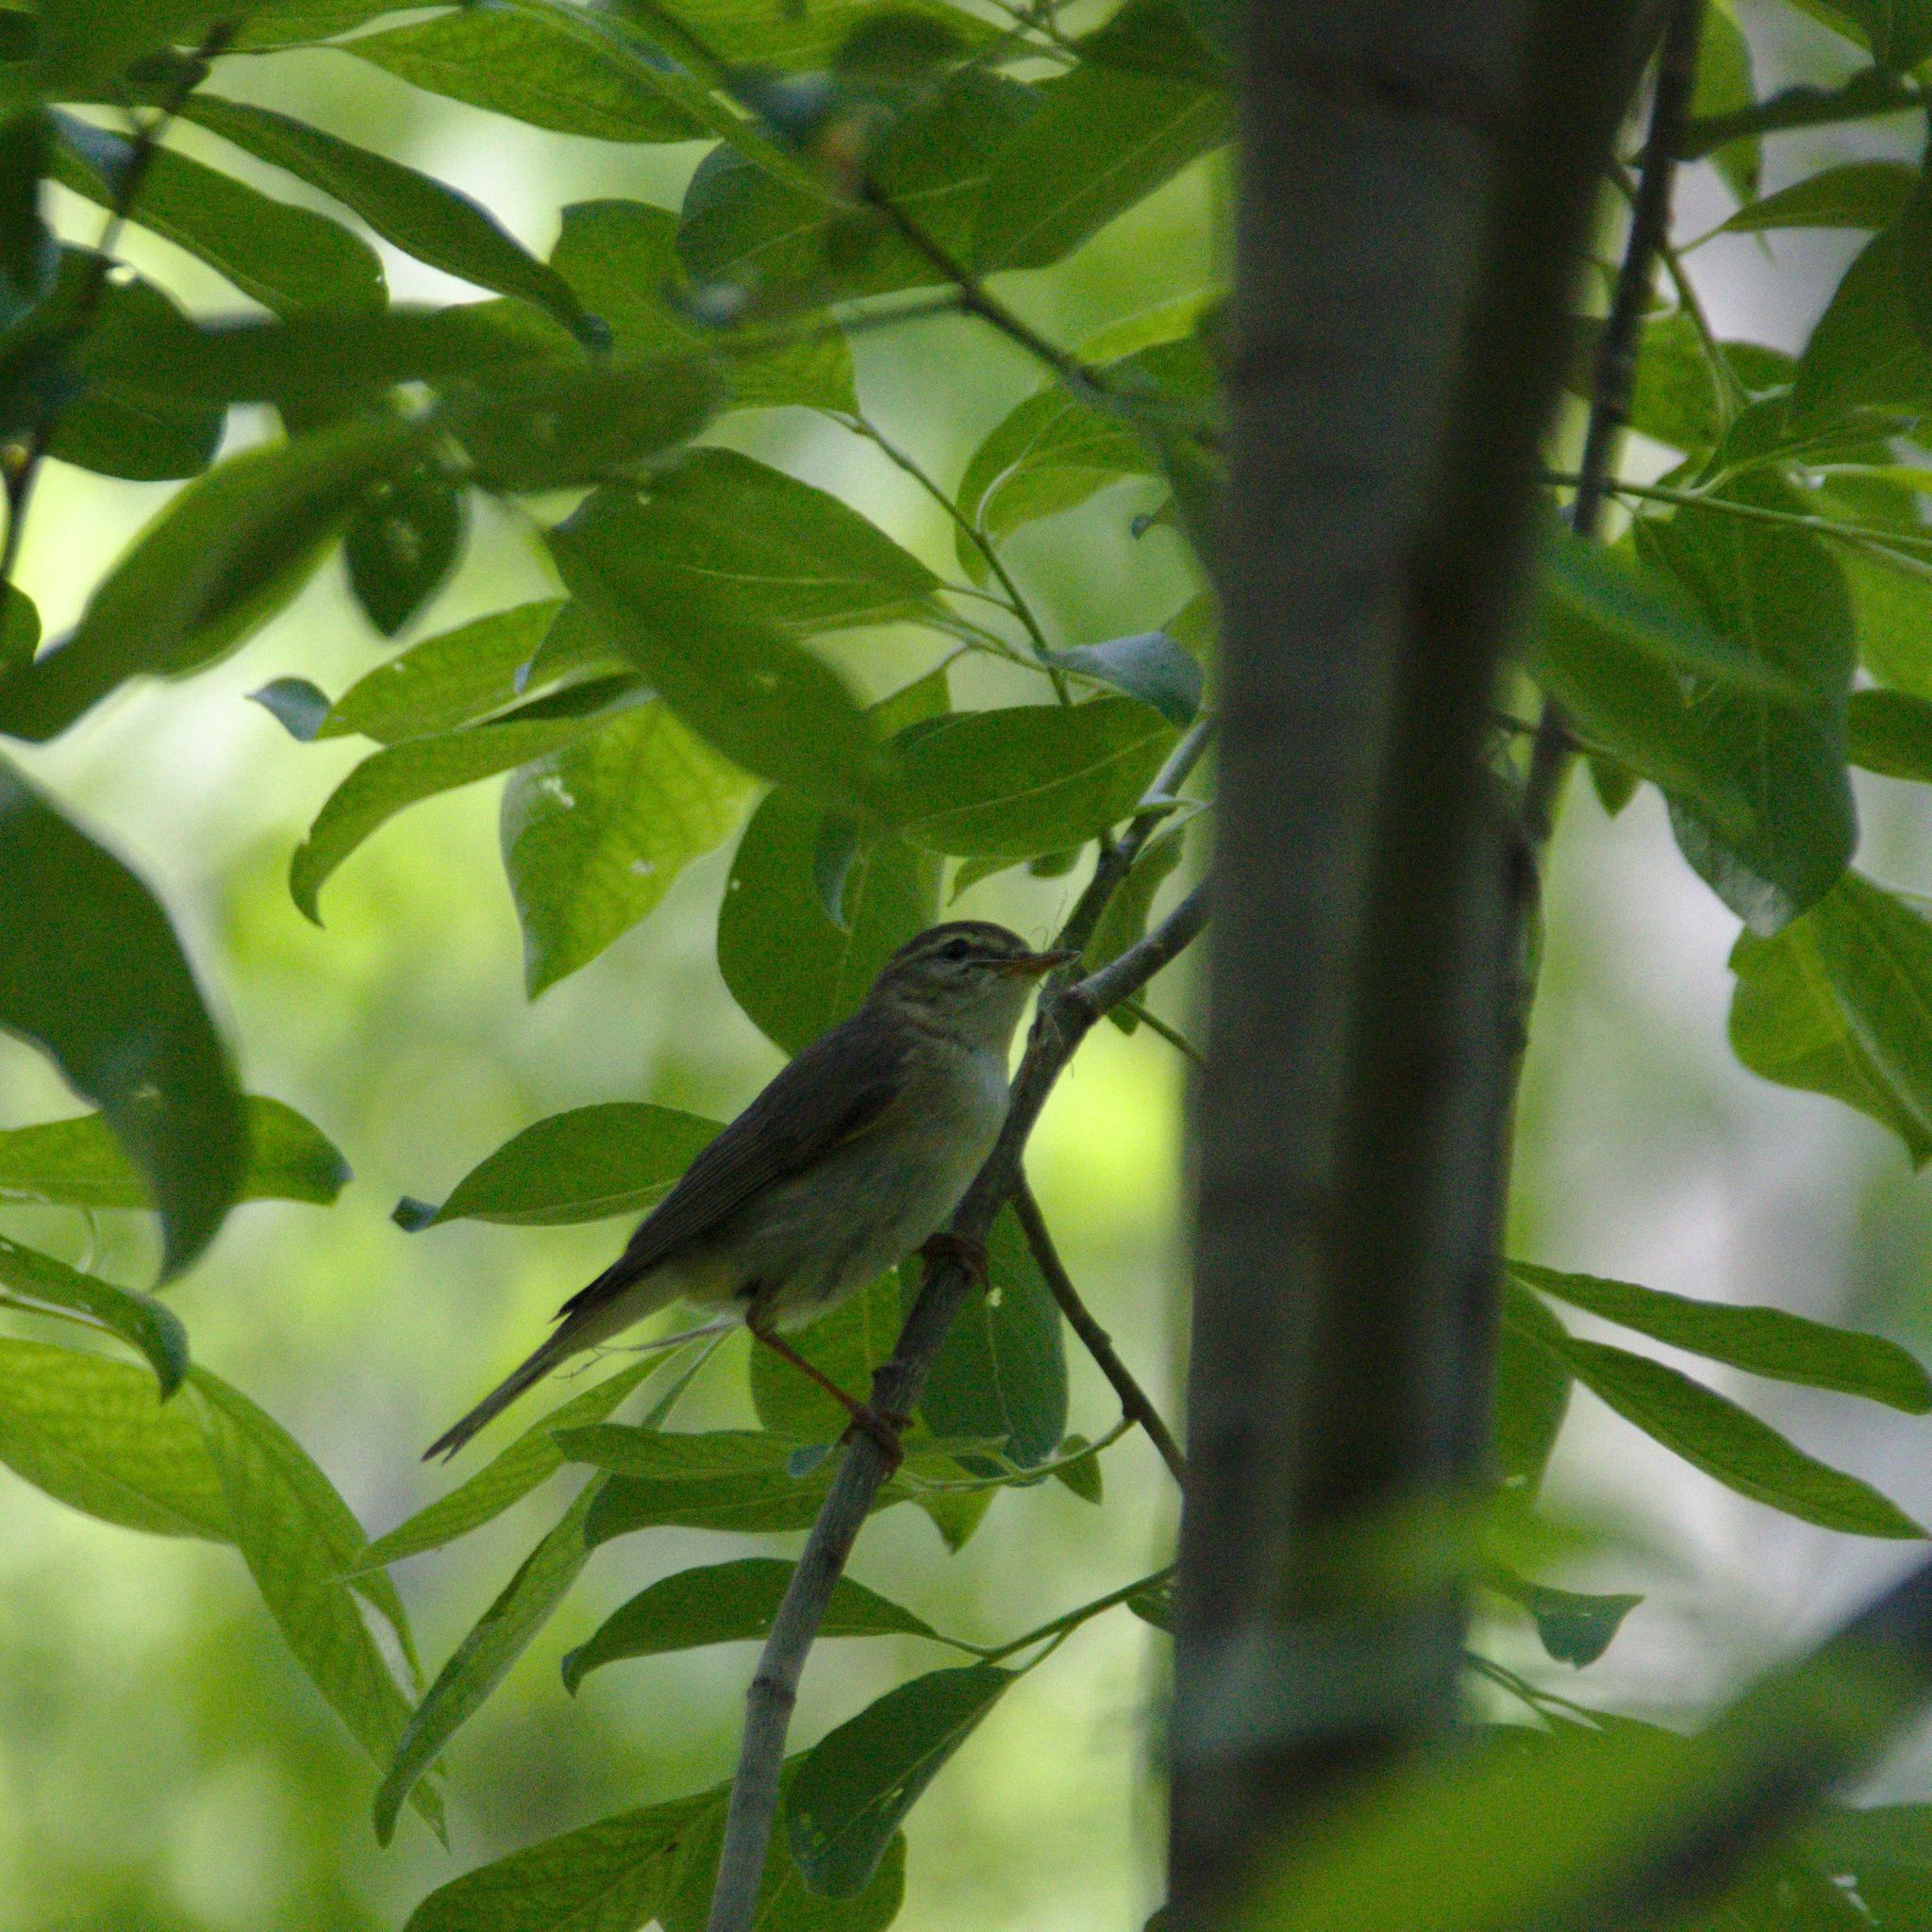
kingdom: Animalia
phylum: Chordata
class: Aves
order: Passeriformes
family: Phylloscopidae
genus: Phylloscopus
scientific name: Phylloscopus trochilus
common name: Willow warbler
